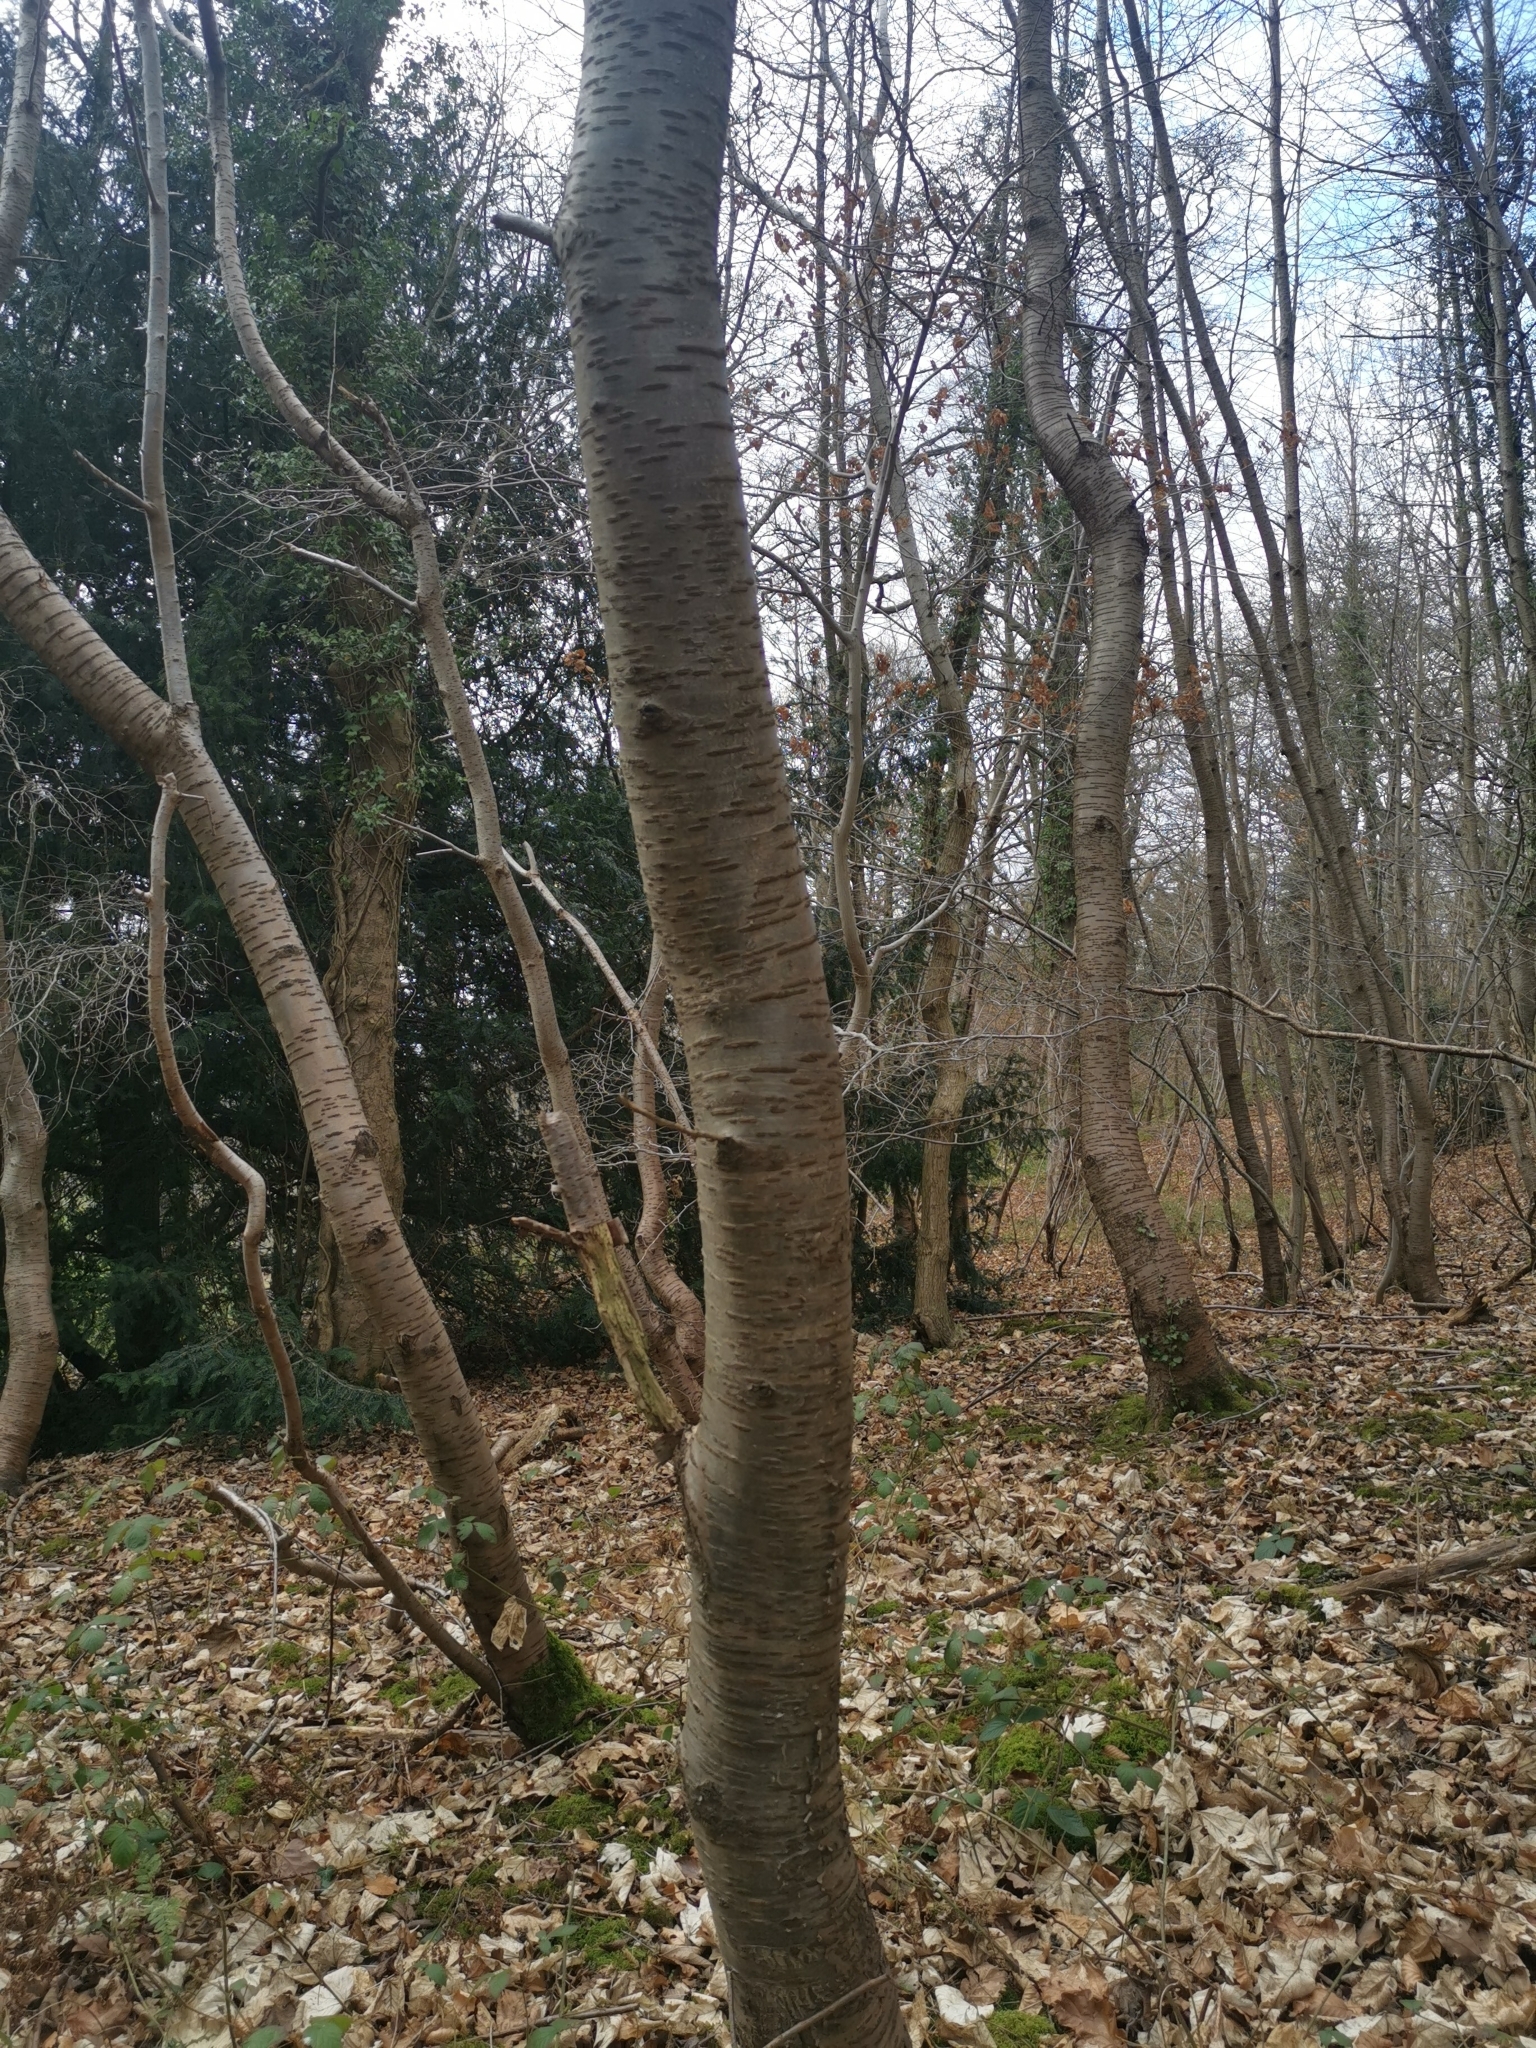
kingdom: Plantae
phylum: Tracheophyta
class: Magnoliopsida
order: Rosales
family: Rosaceae
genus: Prunus
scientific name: Prunus avium
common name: Sweet cherry
